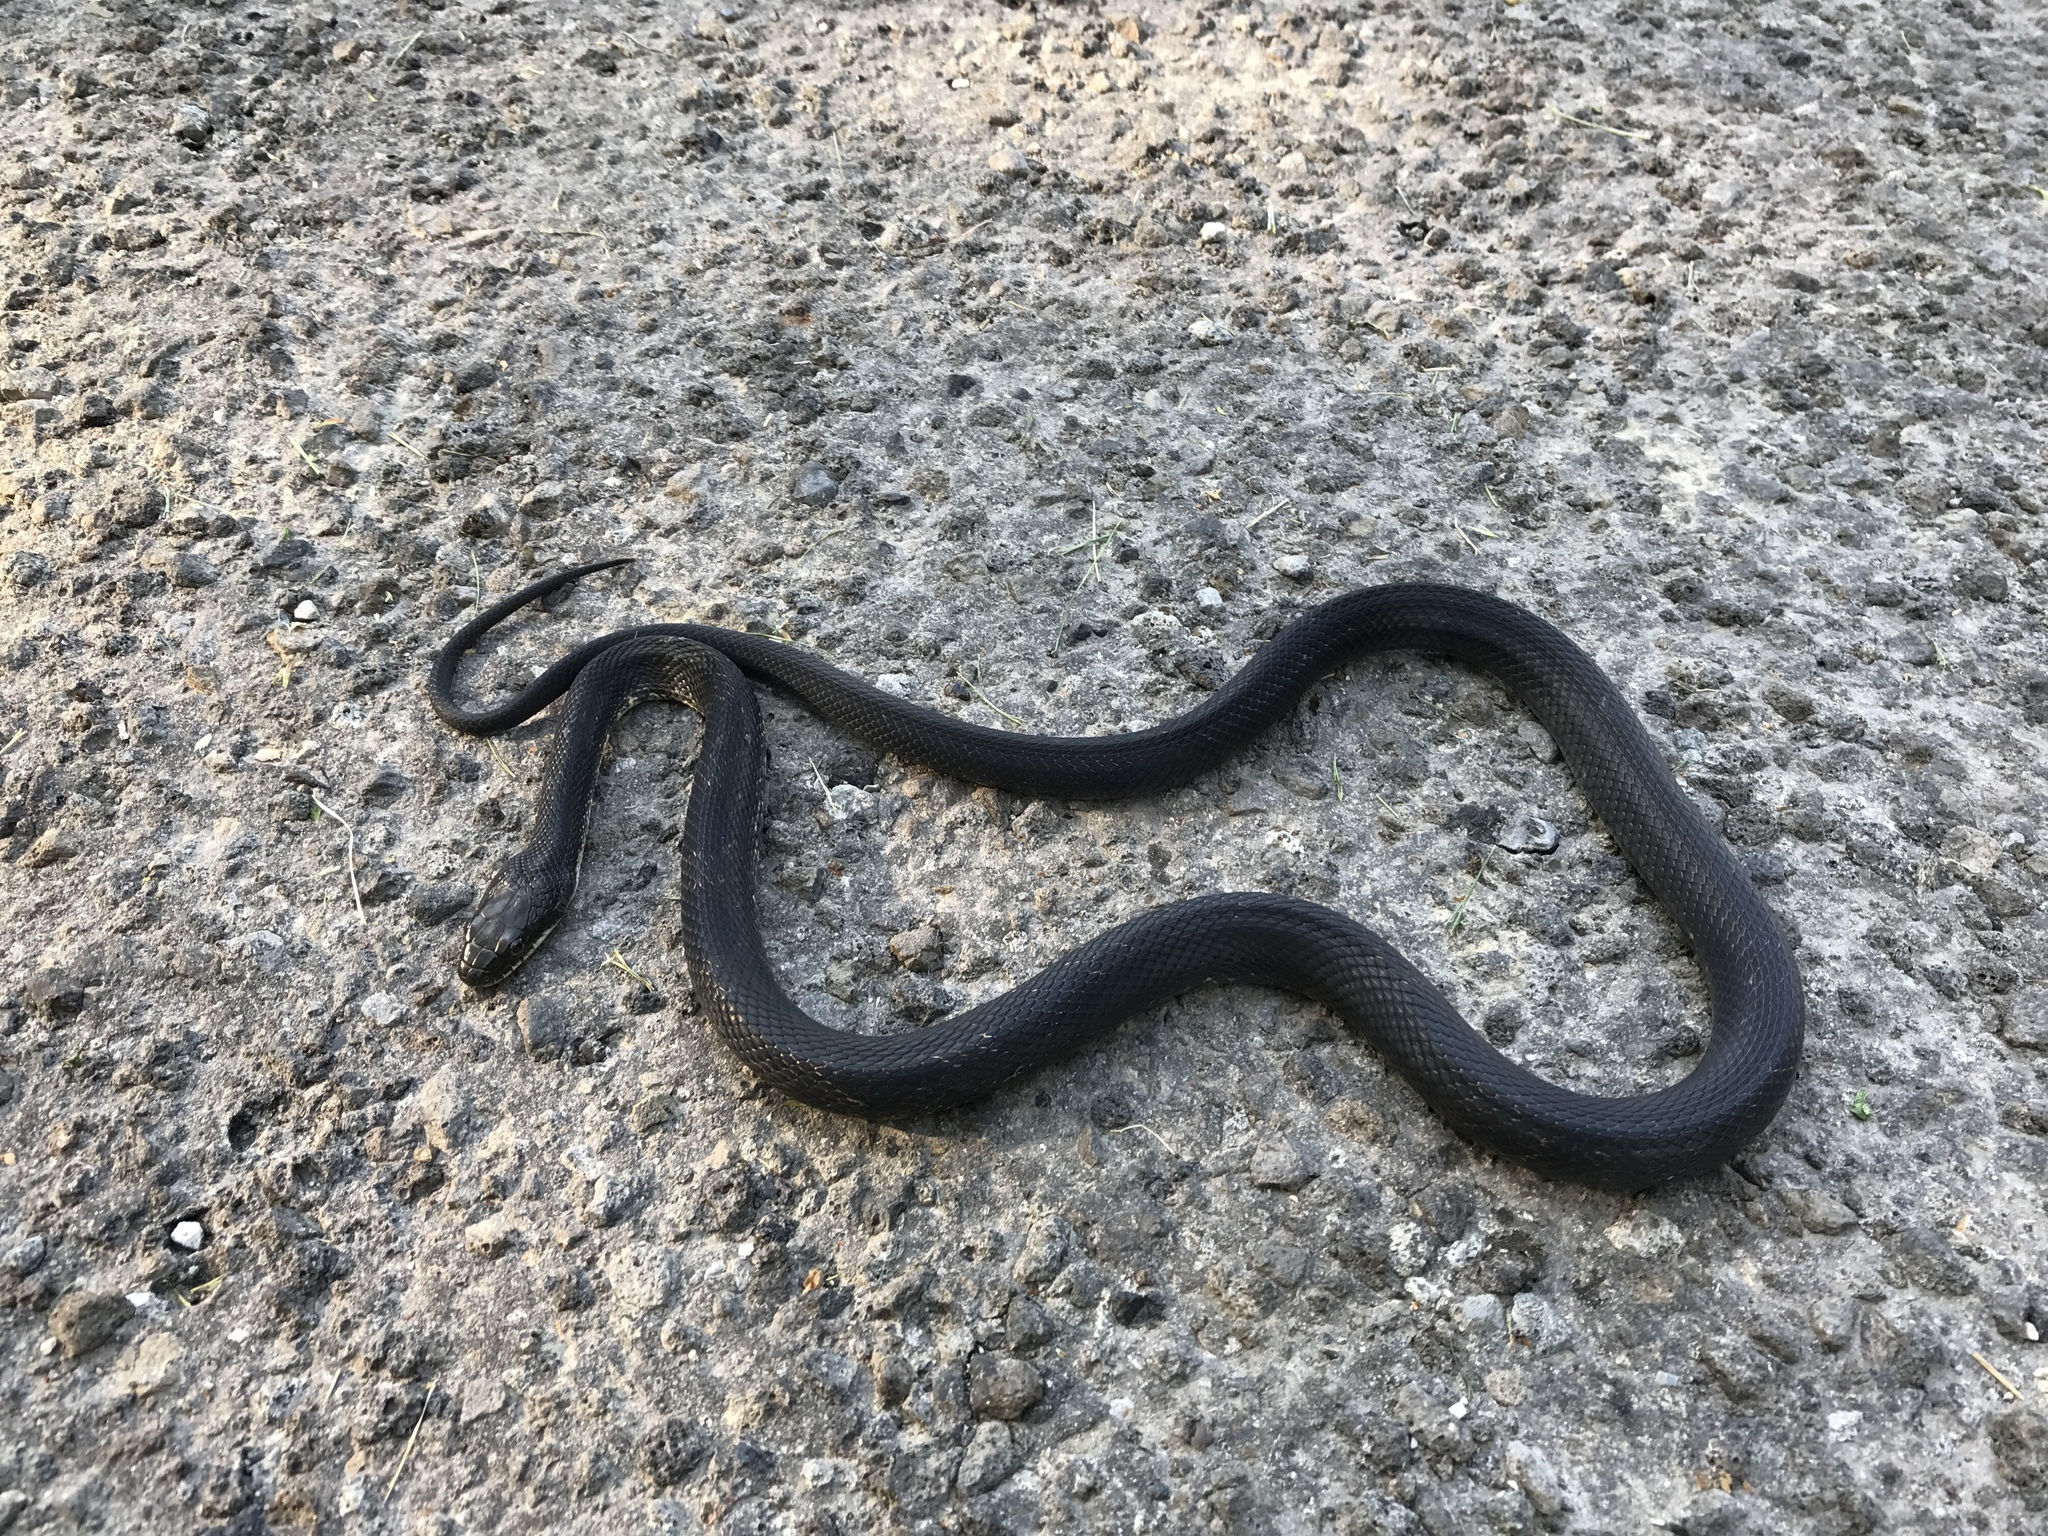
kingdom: Animalia
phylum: Chordata
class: Squamata
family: Colubridae
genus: Pantherophis
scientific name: Pantherophis spiloides
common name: Gray rat snake
